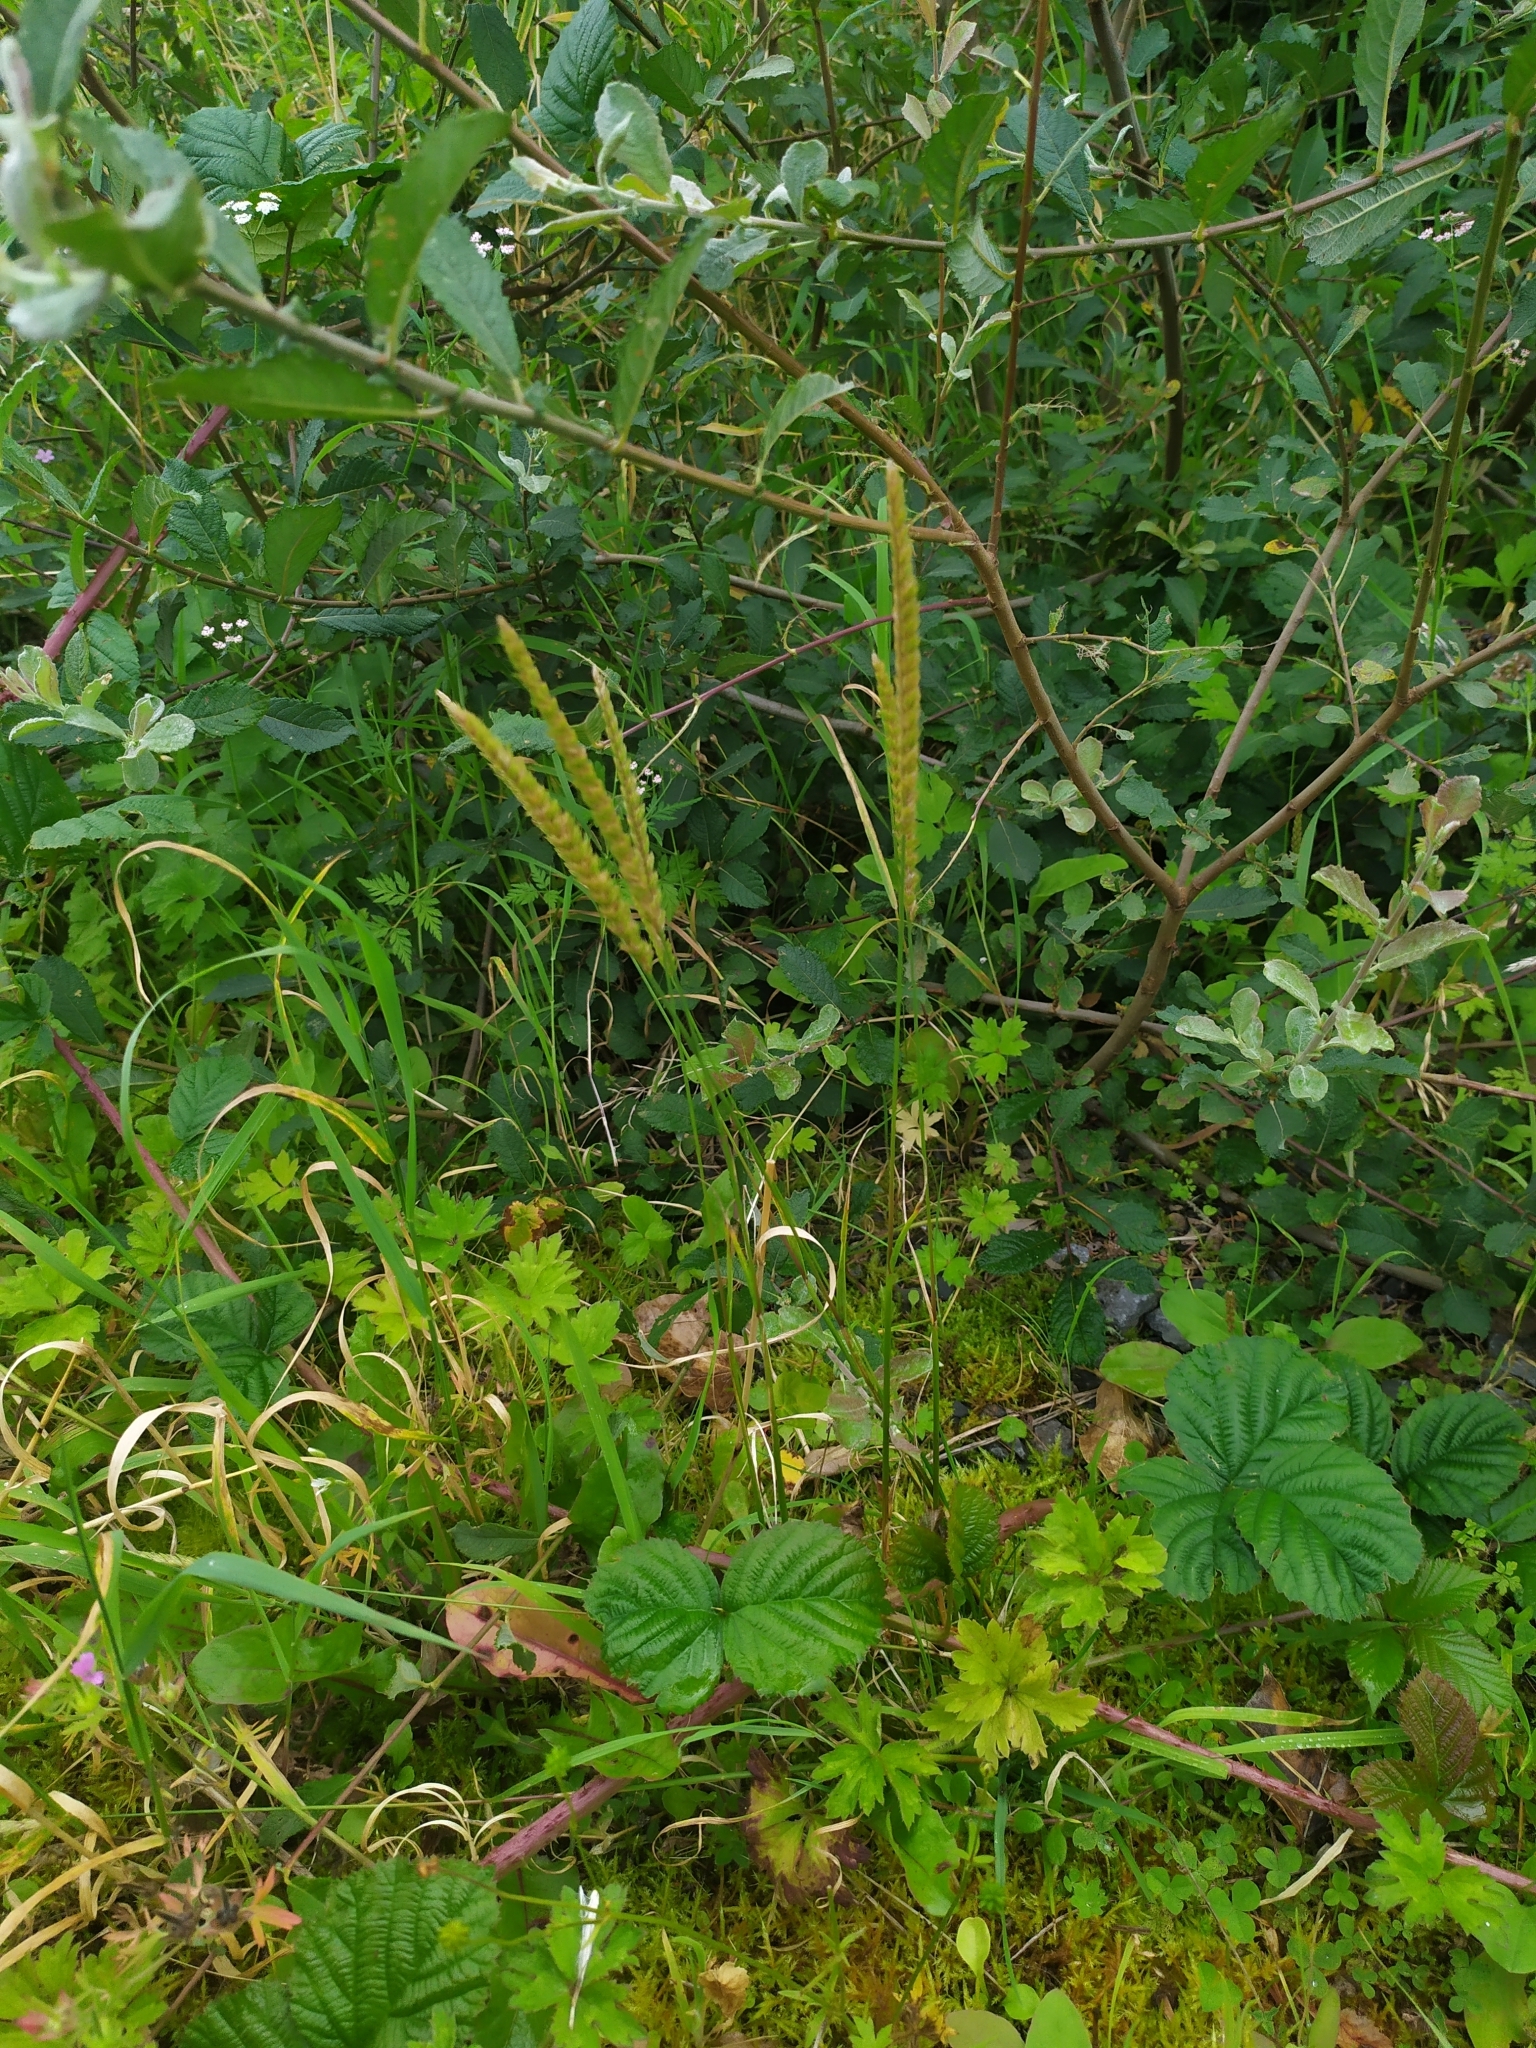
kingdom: Plantae
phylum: Tracheophyta
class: Liliopsida
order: Poales
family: Poaceae
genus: Cynosurus
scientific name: Cynosurus cristatus
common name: Crested dog's-tail
